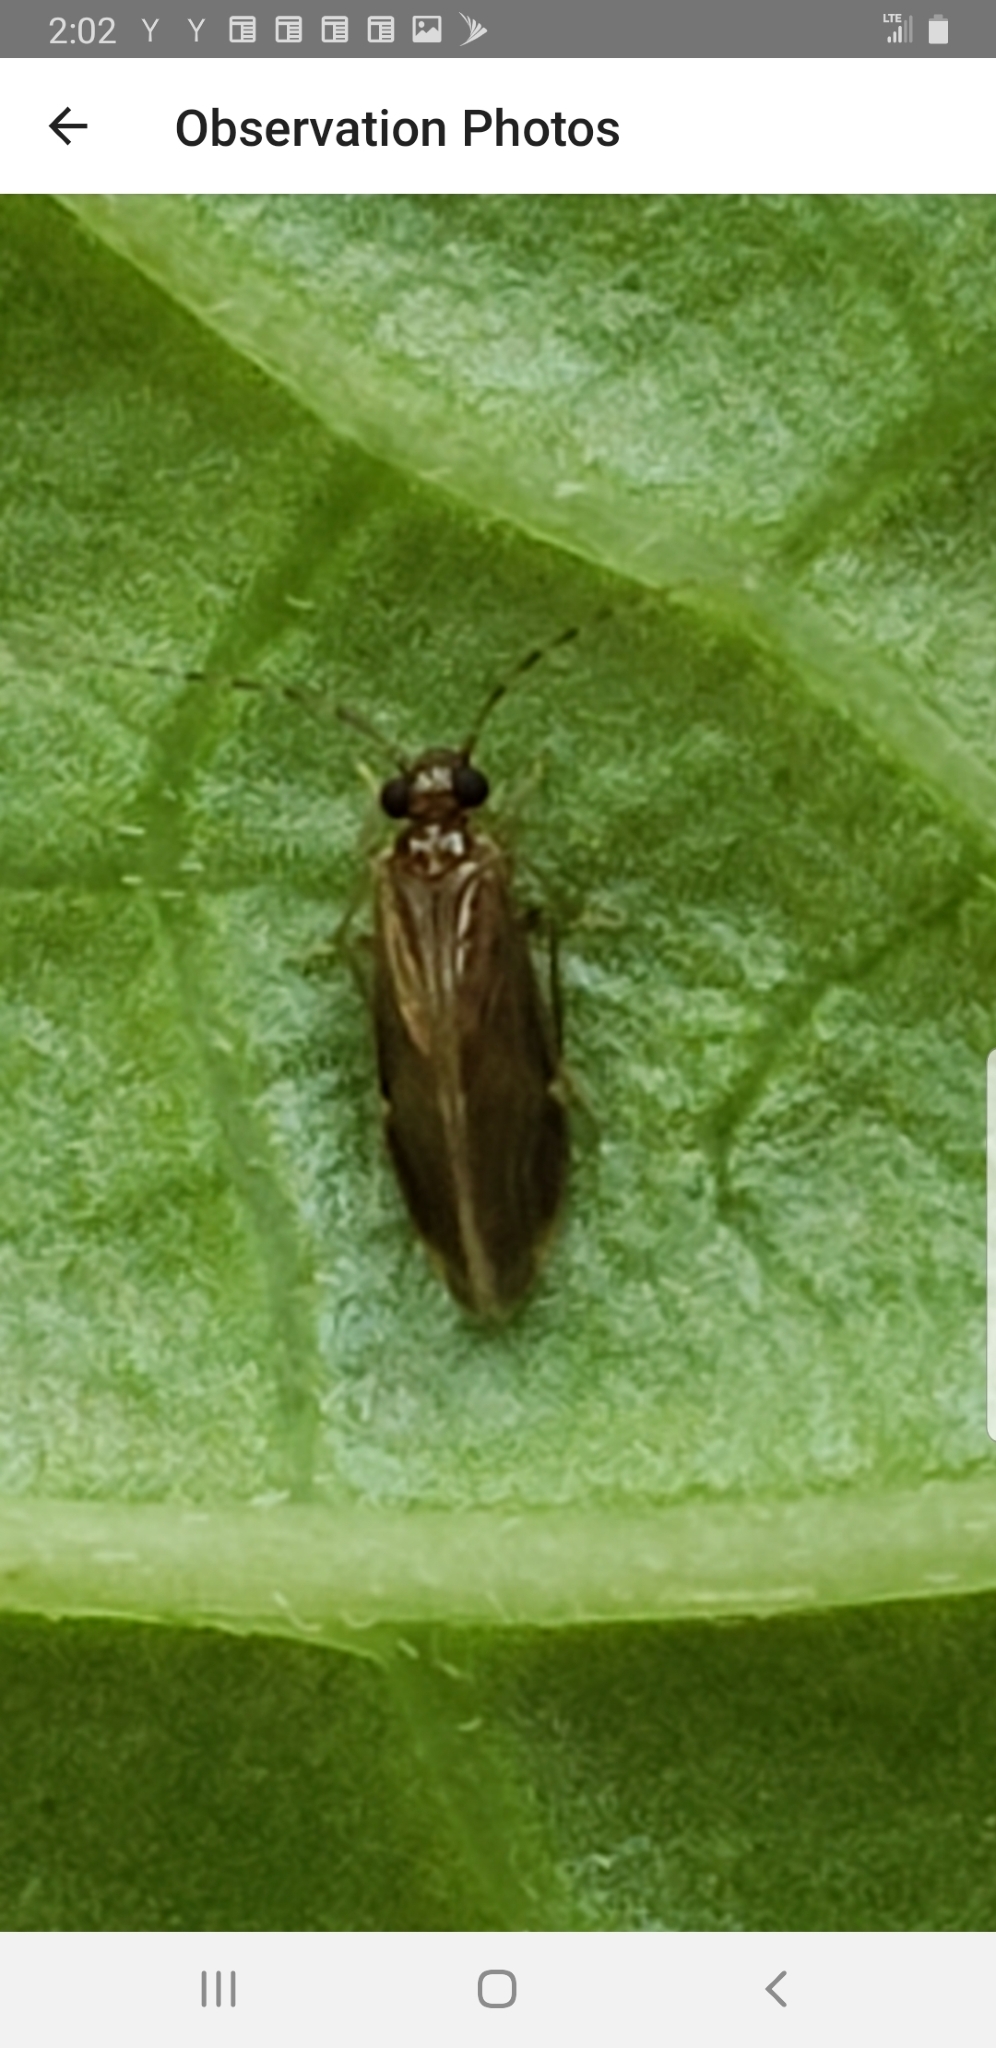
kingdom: Animalia
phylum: Arthropoda
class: Insecta
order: Psocodea
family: Amphipsocidae
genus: Polypsocus
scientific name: Polypsocus corruptus
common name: Corrupt barklouse
